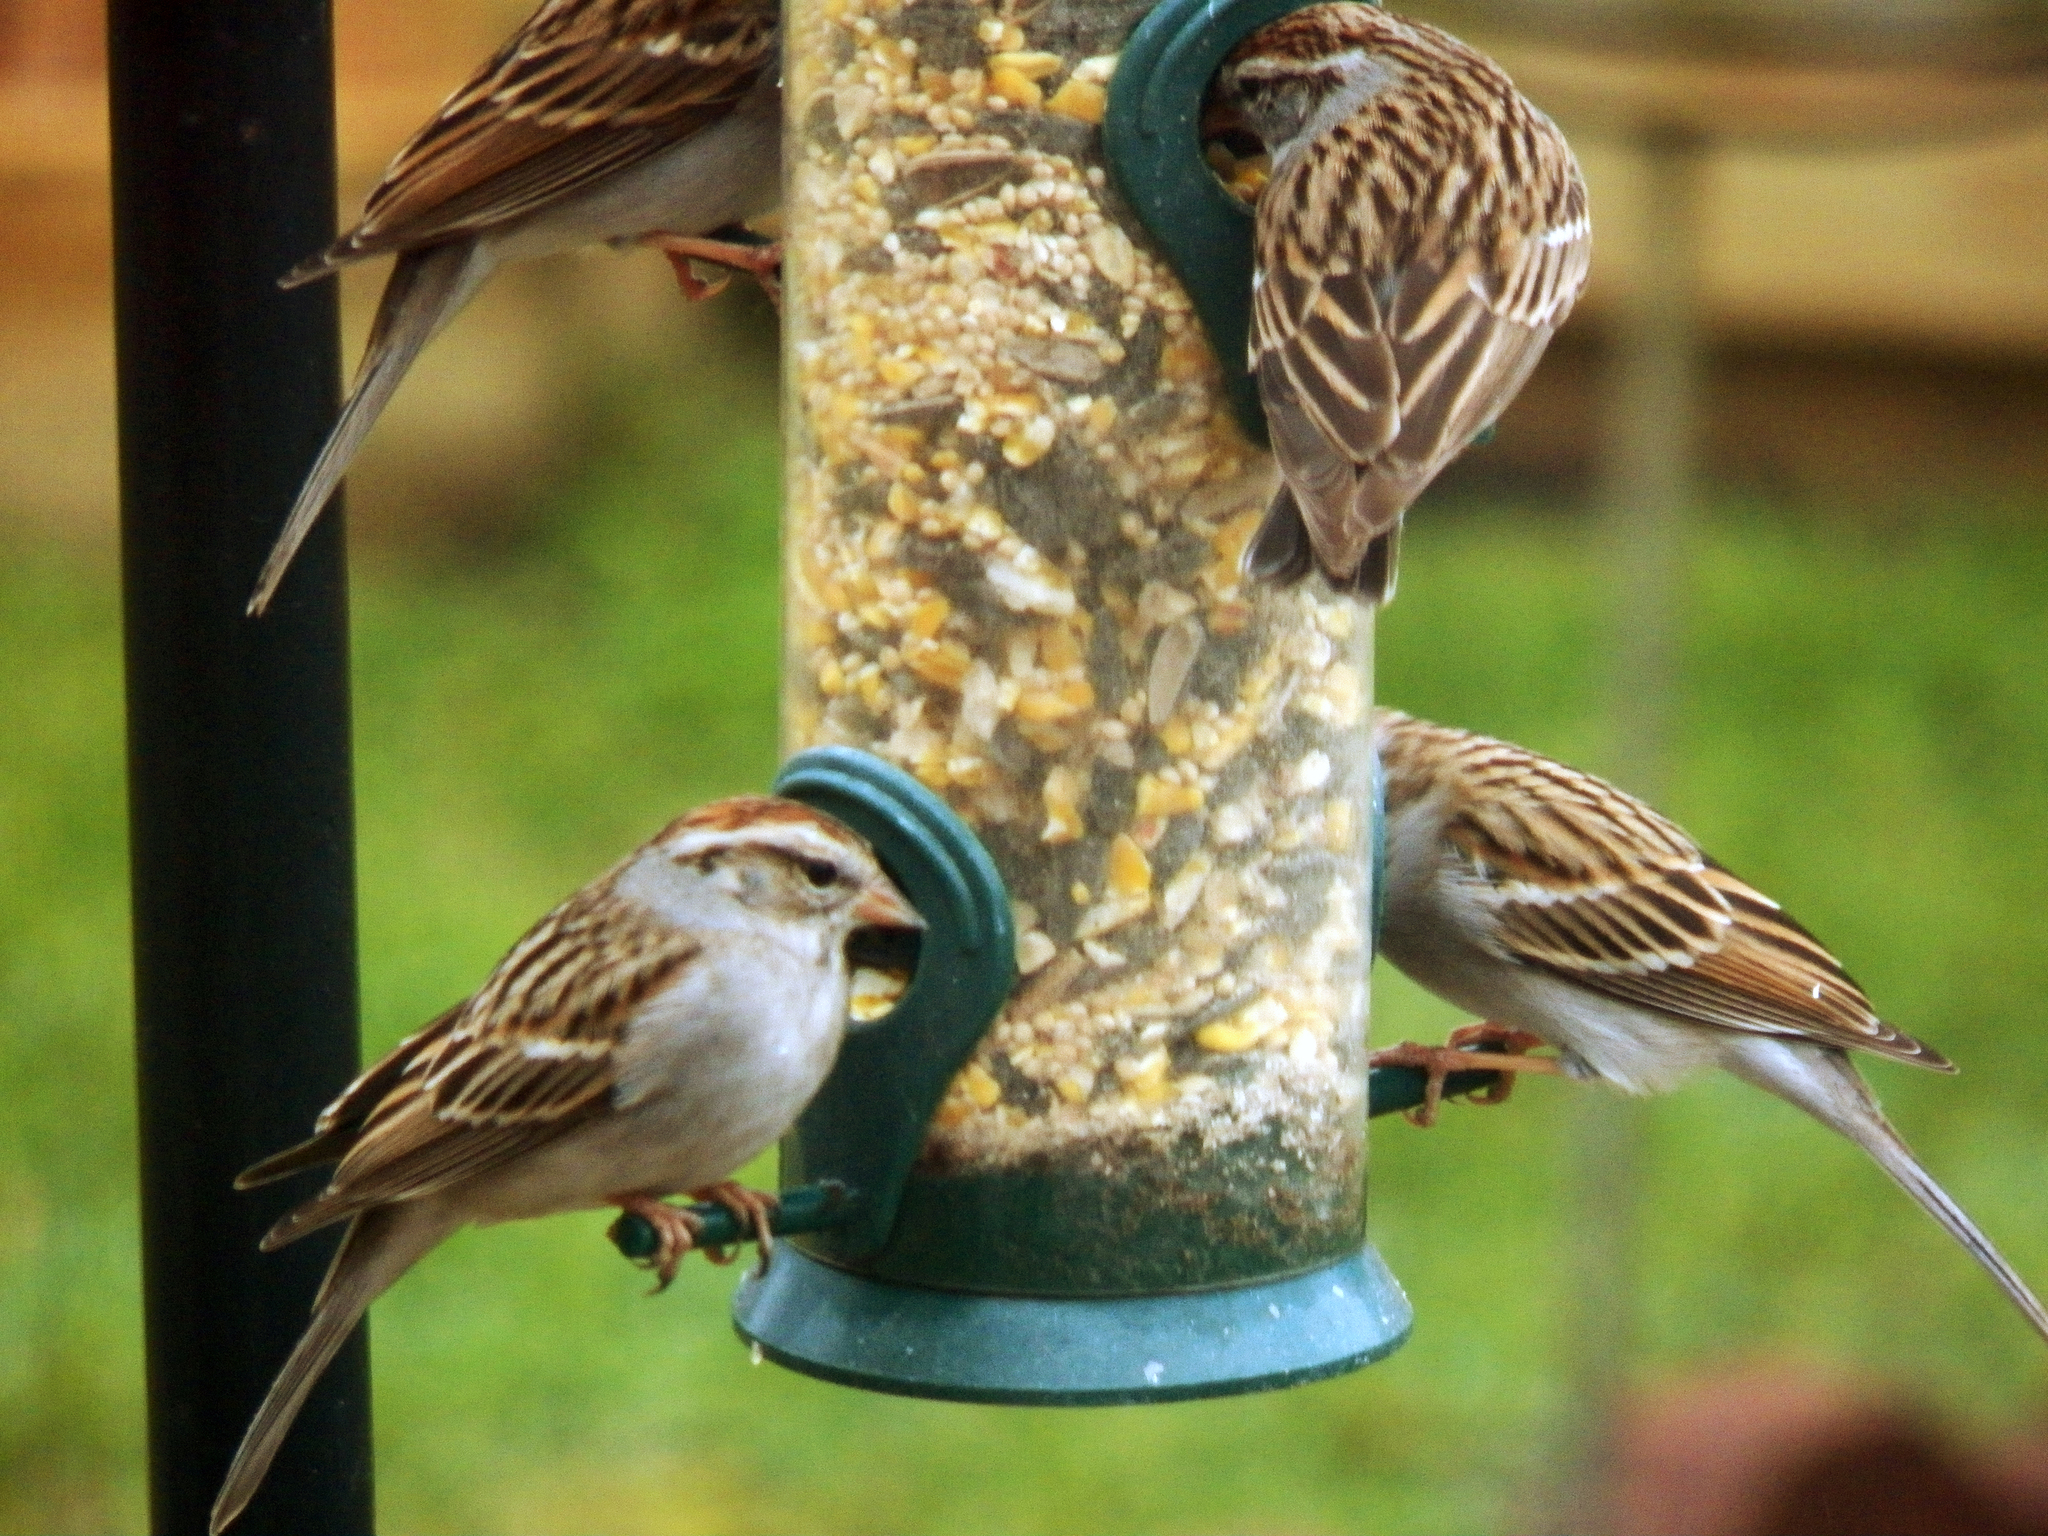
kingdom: Animalia
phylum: Chordata
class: Aves
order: Passeriformes
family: Passerellidae
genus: Spizella
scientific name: Spizella passerina
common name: Chipping sparrow
